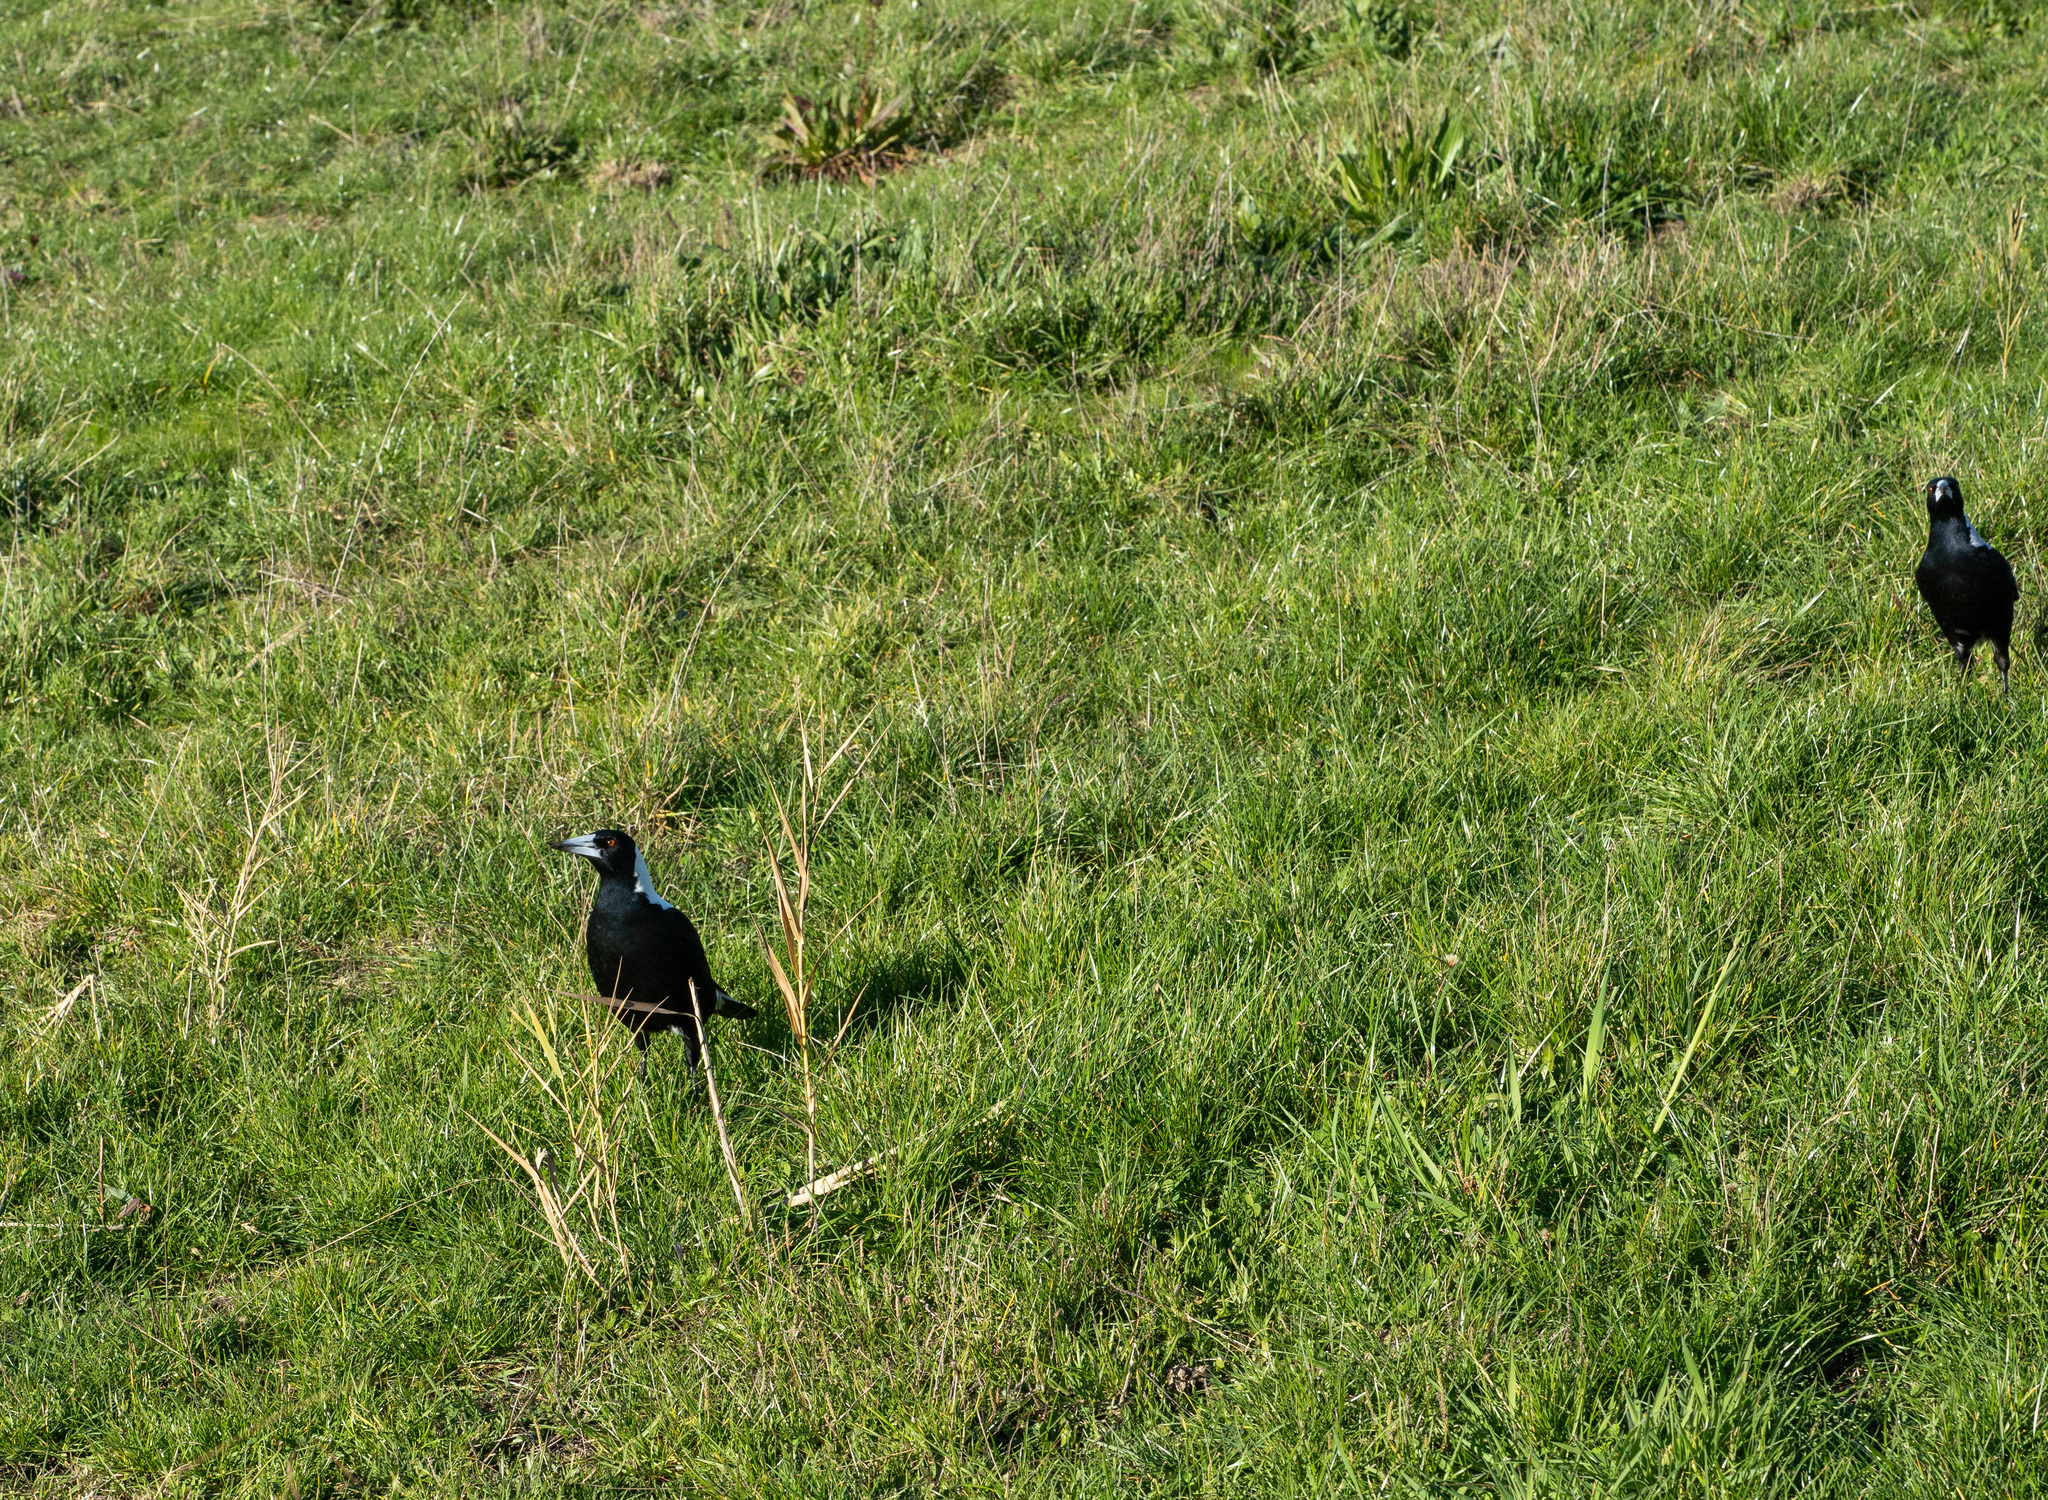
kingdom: Animalia
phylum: Chordata
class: Aves
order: Passeriformes
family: Cracticidae
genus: Gymnorhina
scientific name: Gymnorhina tibicen
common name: Australian magpie
